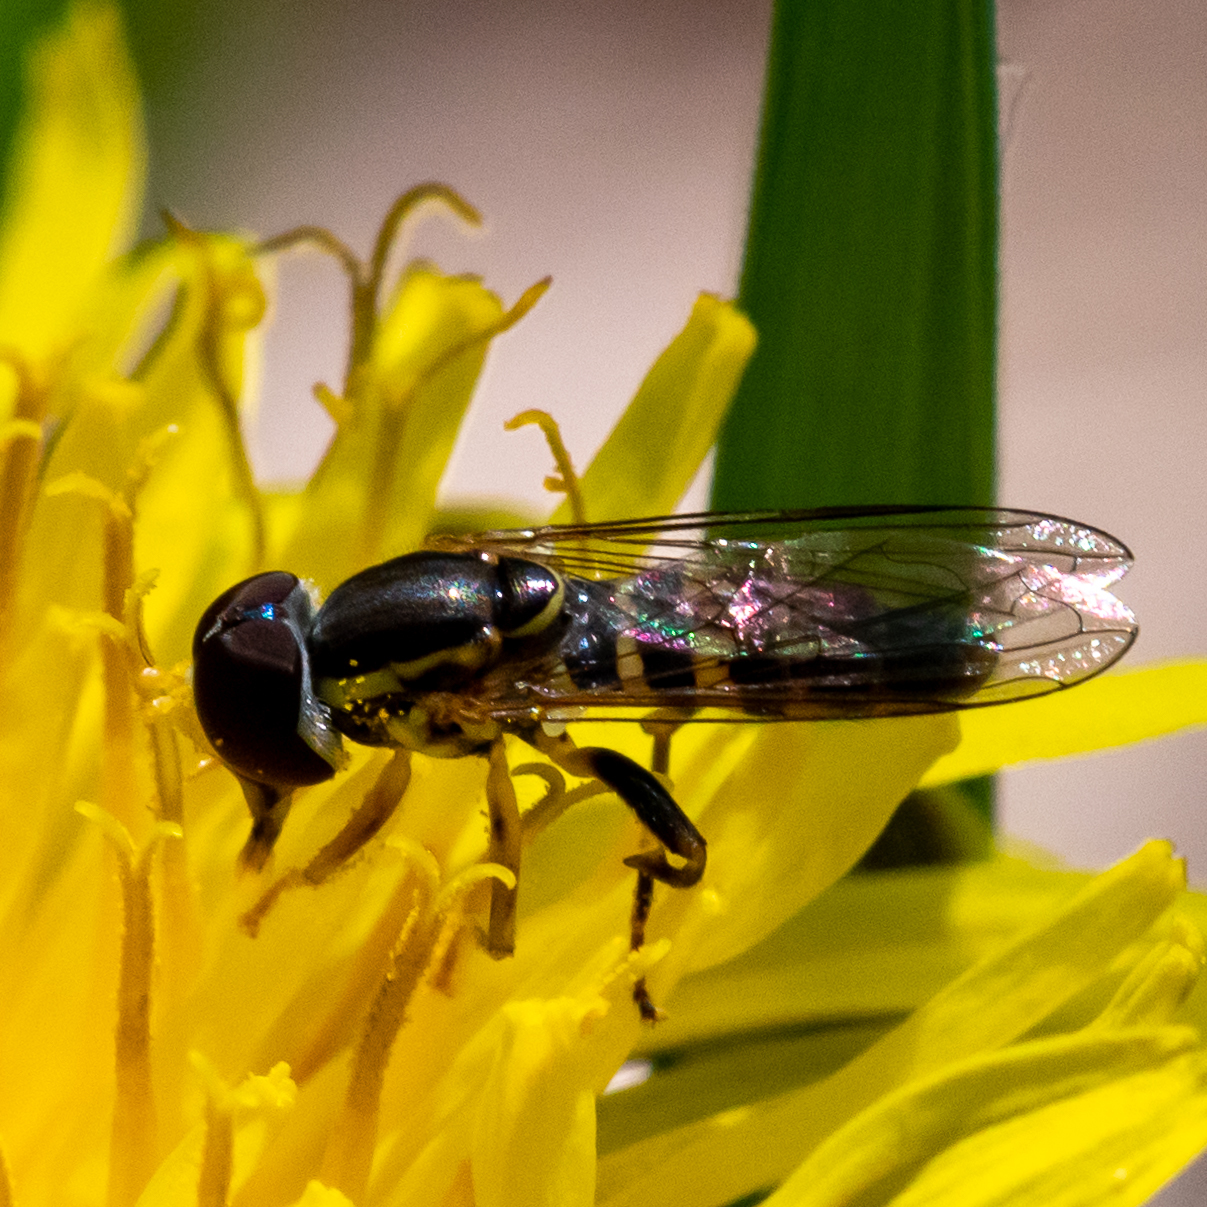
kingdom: Animalia
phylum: Arthropoda
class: Insecta
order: Diptera
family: Syrphidae
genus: Toxomerus
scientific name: Toxomerus geminatus
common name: Eastern calligrapher
